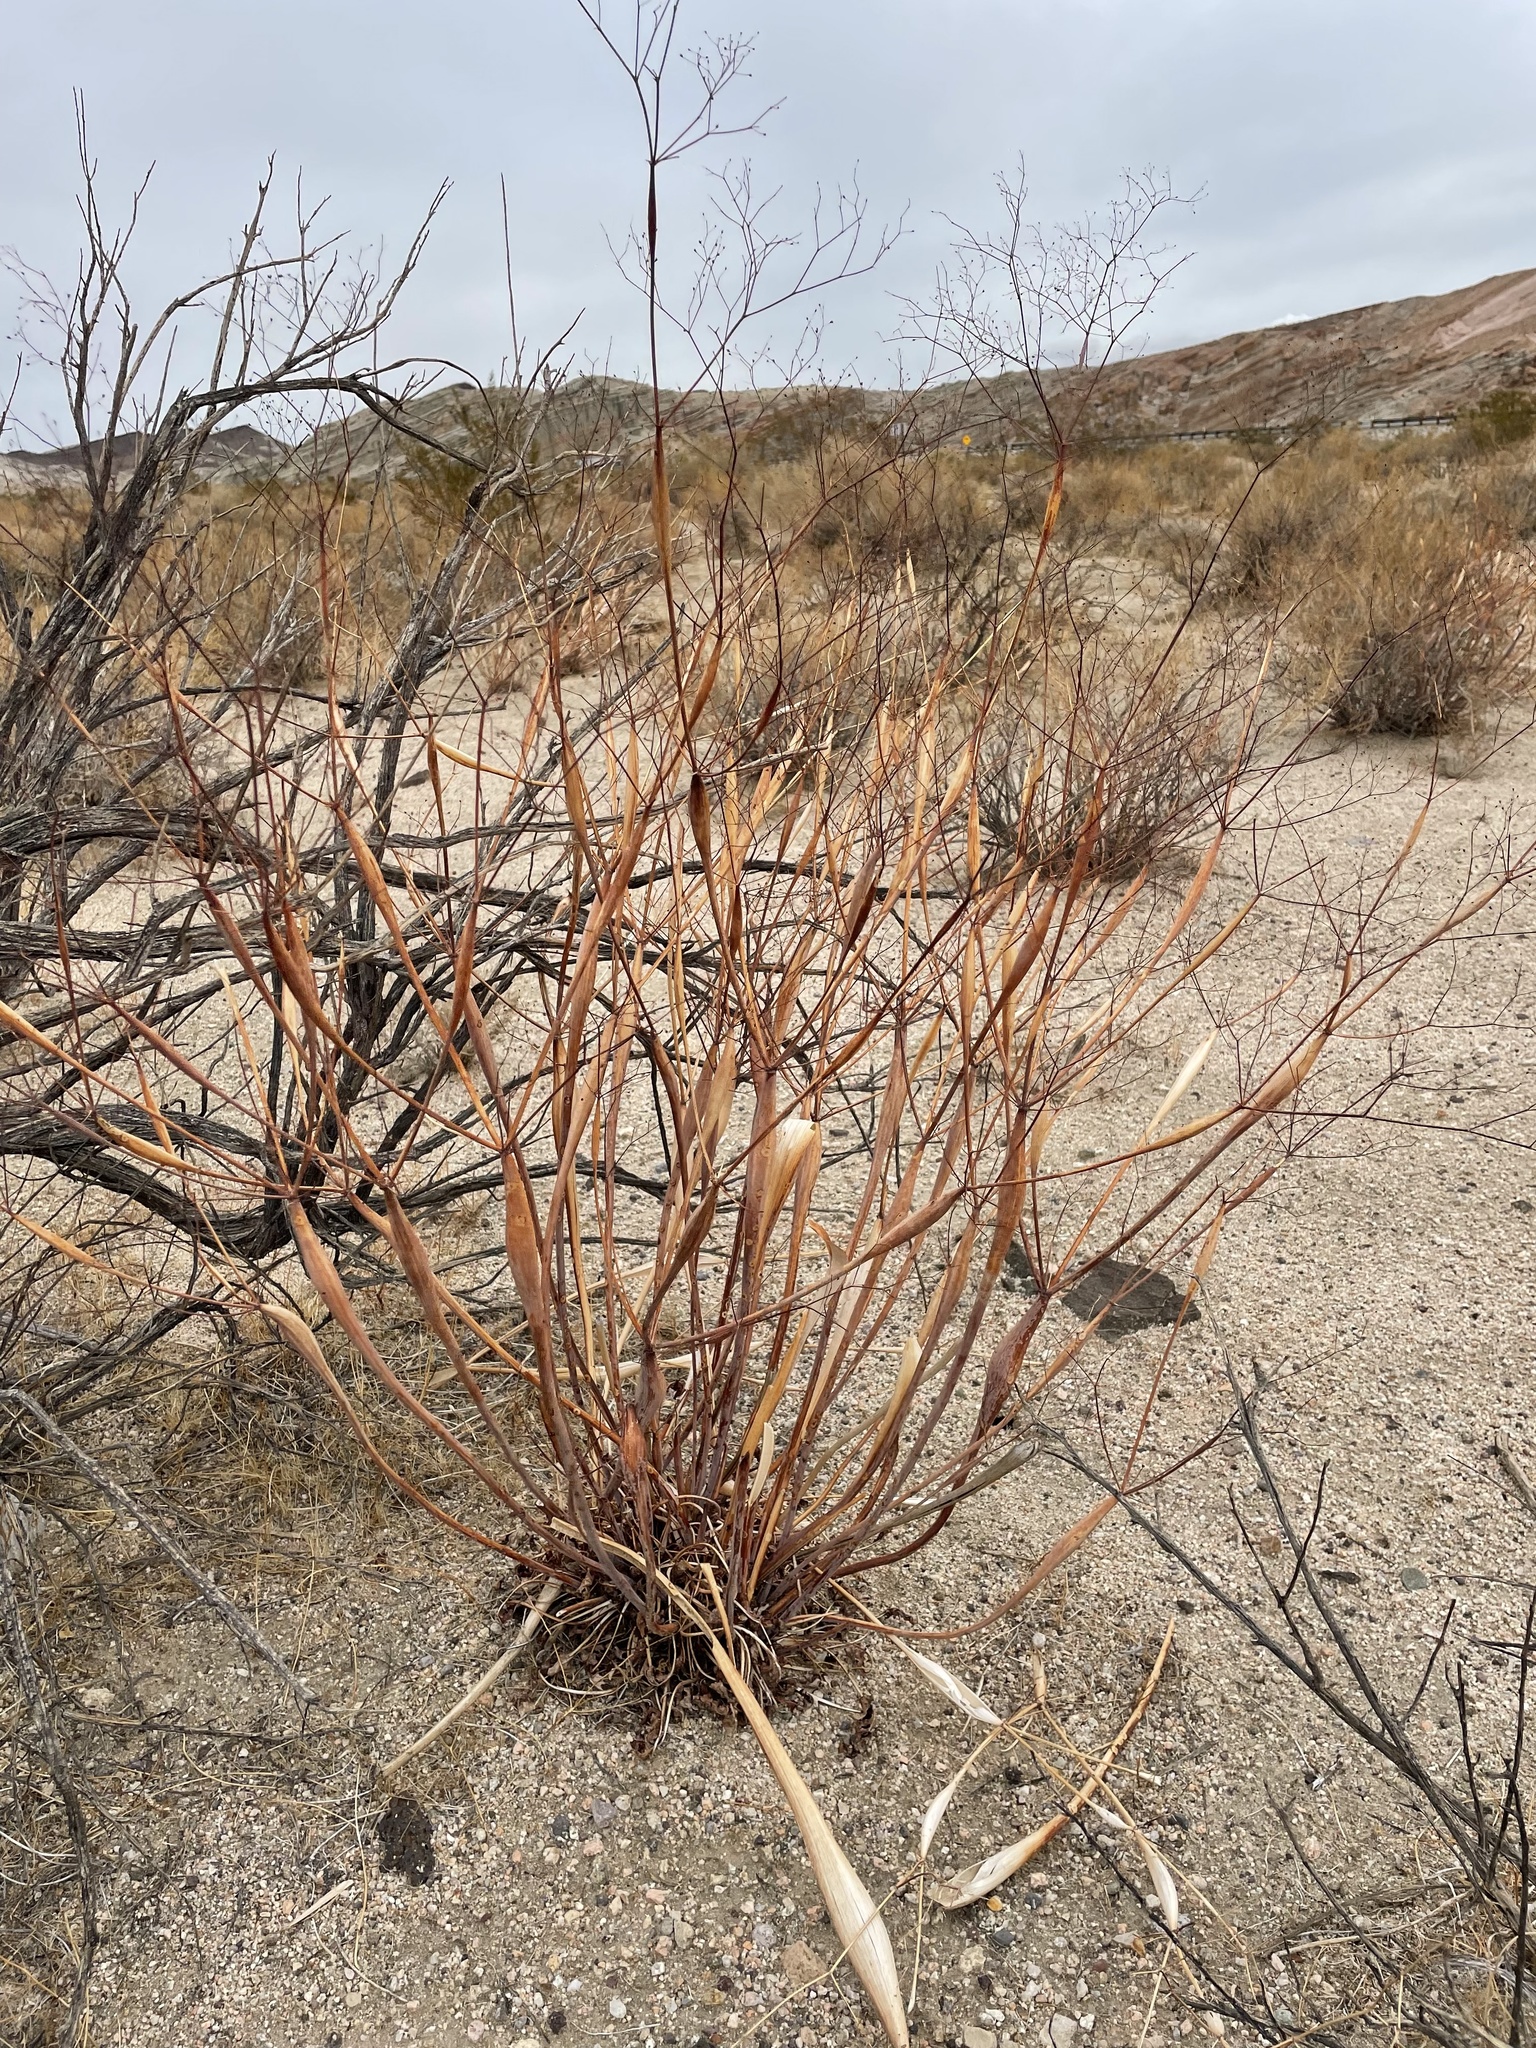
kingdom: Plantae
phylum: Tracheophyta
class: Magnoliopsida
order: Caryophyllales
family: Polygonaceae
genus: Eriogonum
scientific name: Eriogonum inflatum
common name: Desert trumpet
